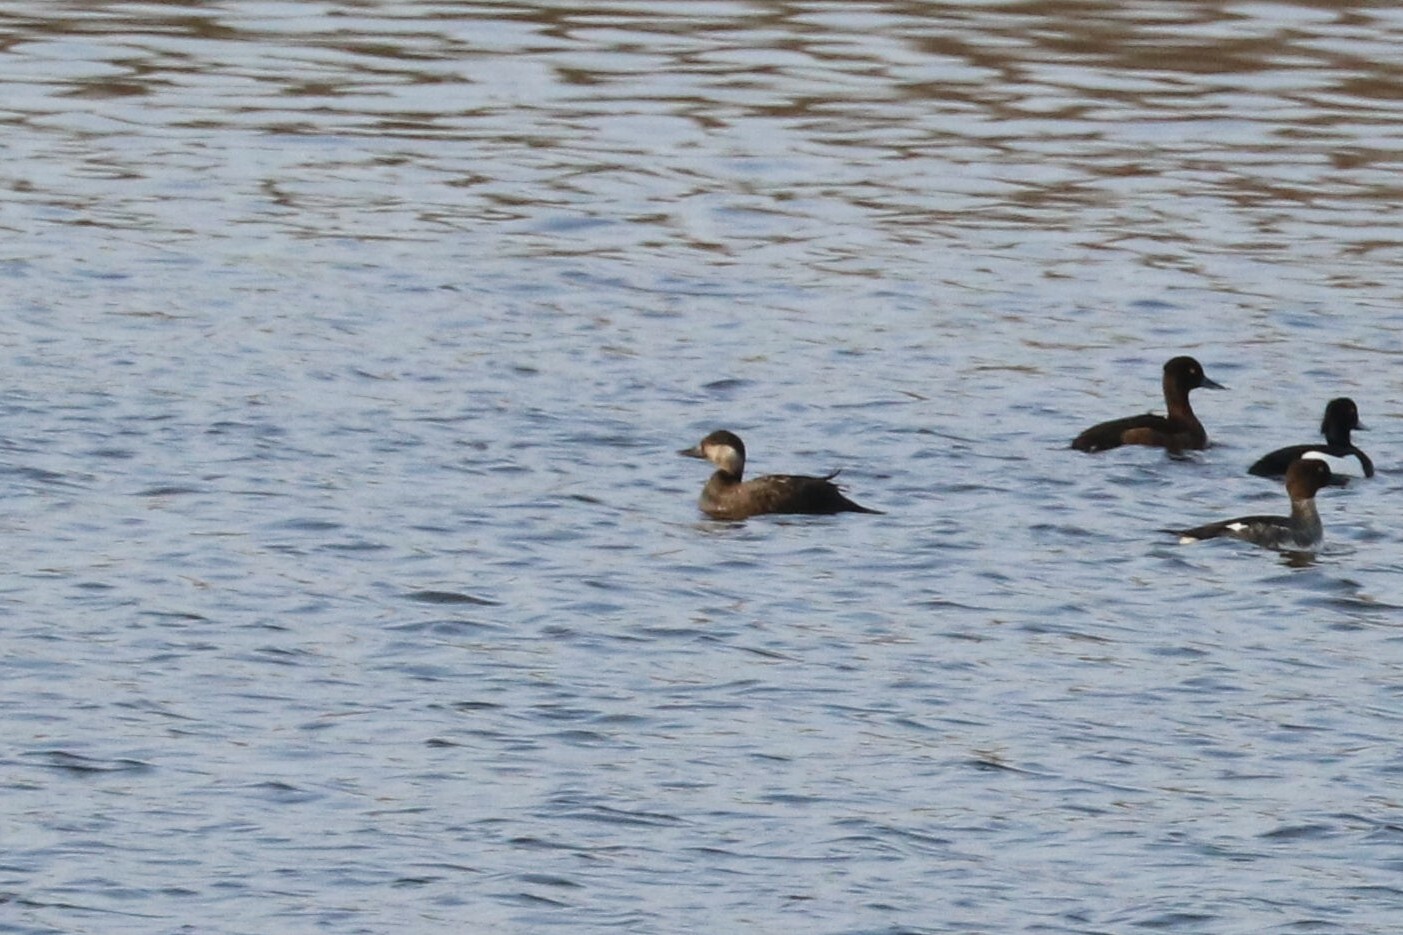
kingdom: Animalia
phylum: Chordata
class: Aves
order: Anseriformes
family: Anatidae
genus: Melanitta
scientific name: Melanitta nigra
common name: Common scoter
